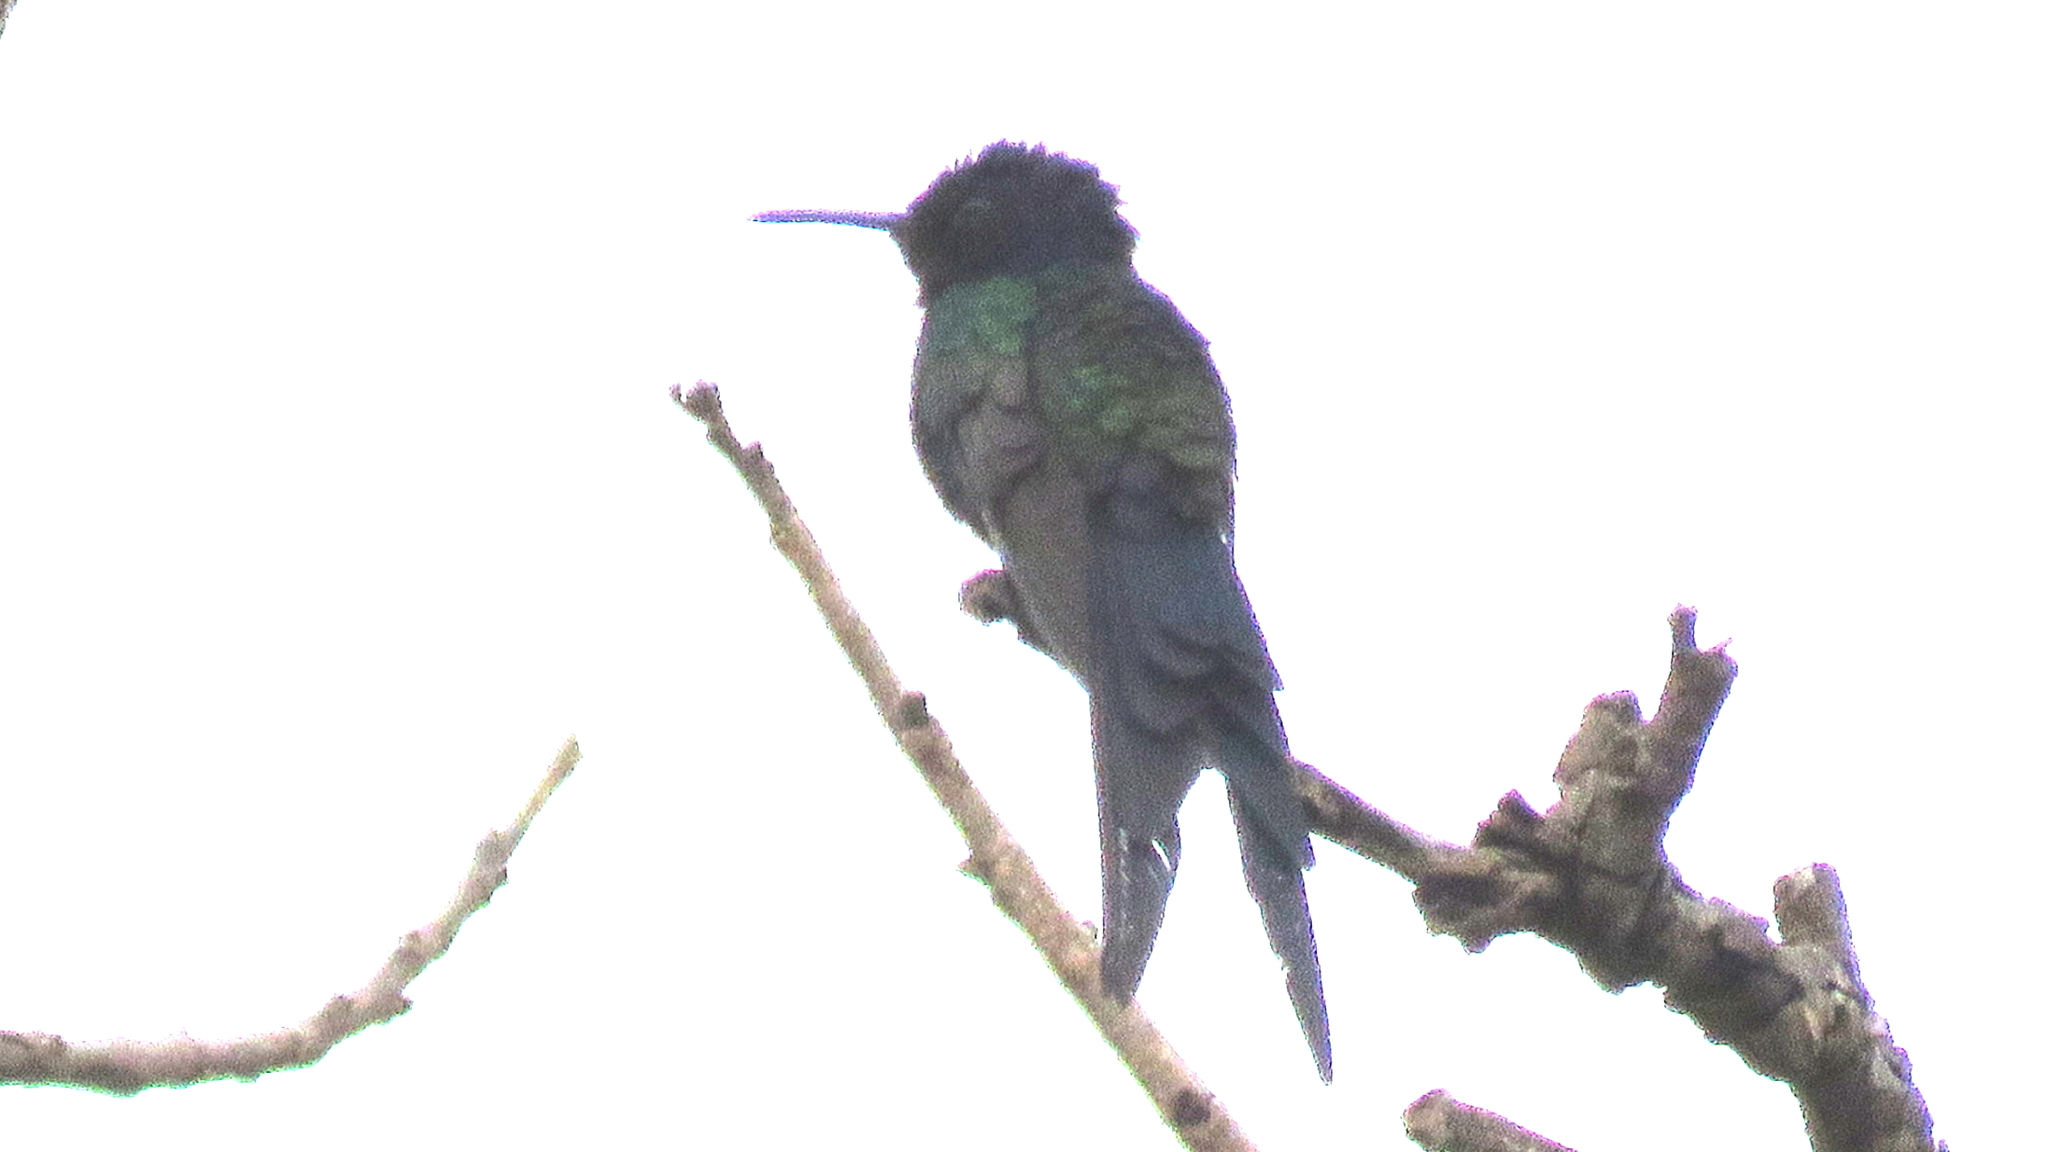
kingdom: Animalia
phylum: Chordata
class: Aves
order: Apodiformes
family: Trochilidae
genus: Eupetomena
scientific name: Eupetomena macroura
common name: Swallow-tailed hummingbird
